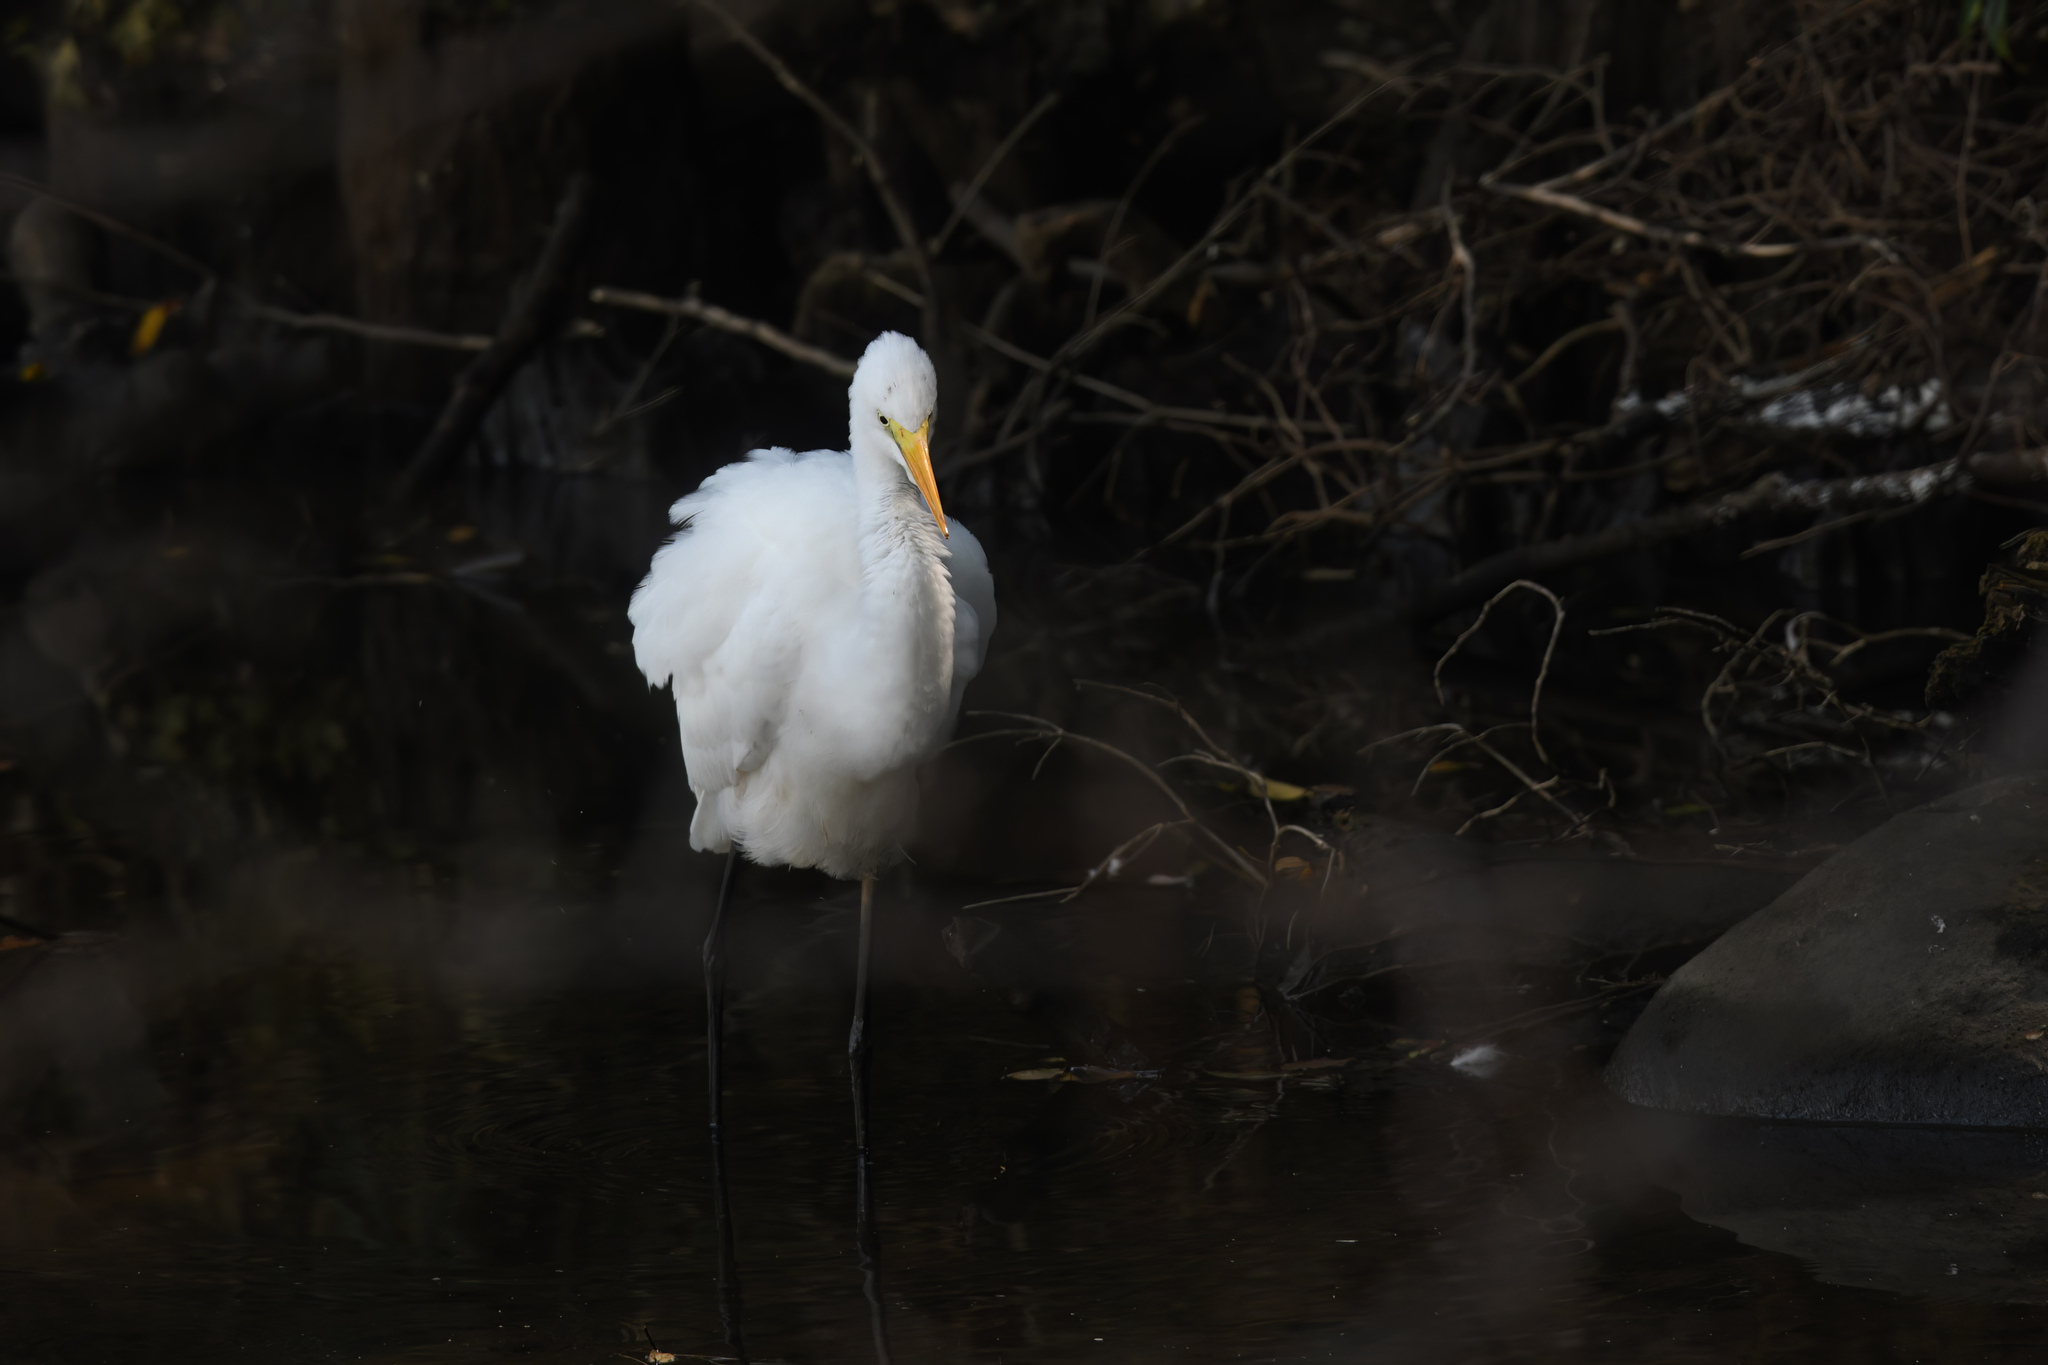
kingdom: Animalia
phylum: Chordata
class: Aves
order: Pelecaniformes
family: Ardeidae
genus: Ardea
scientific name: Ardea alba
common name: Great egret
